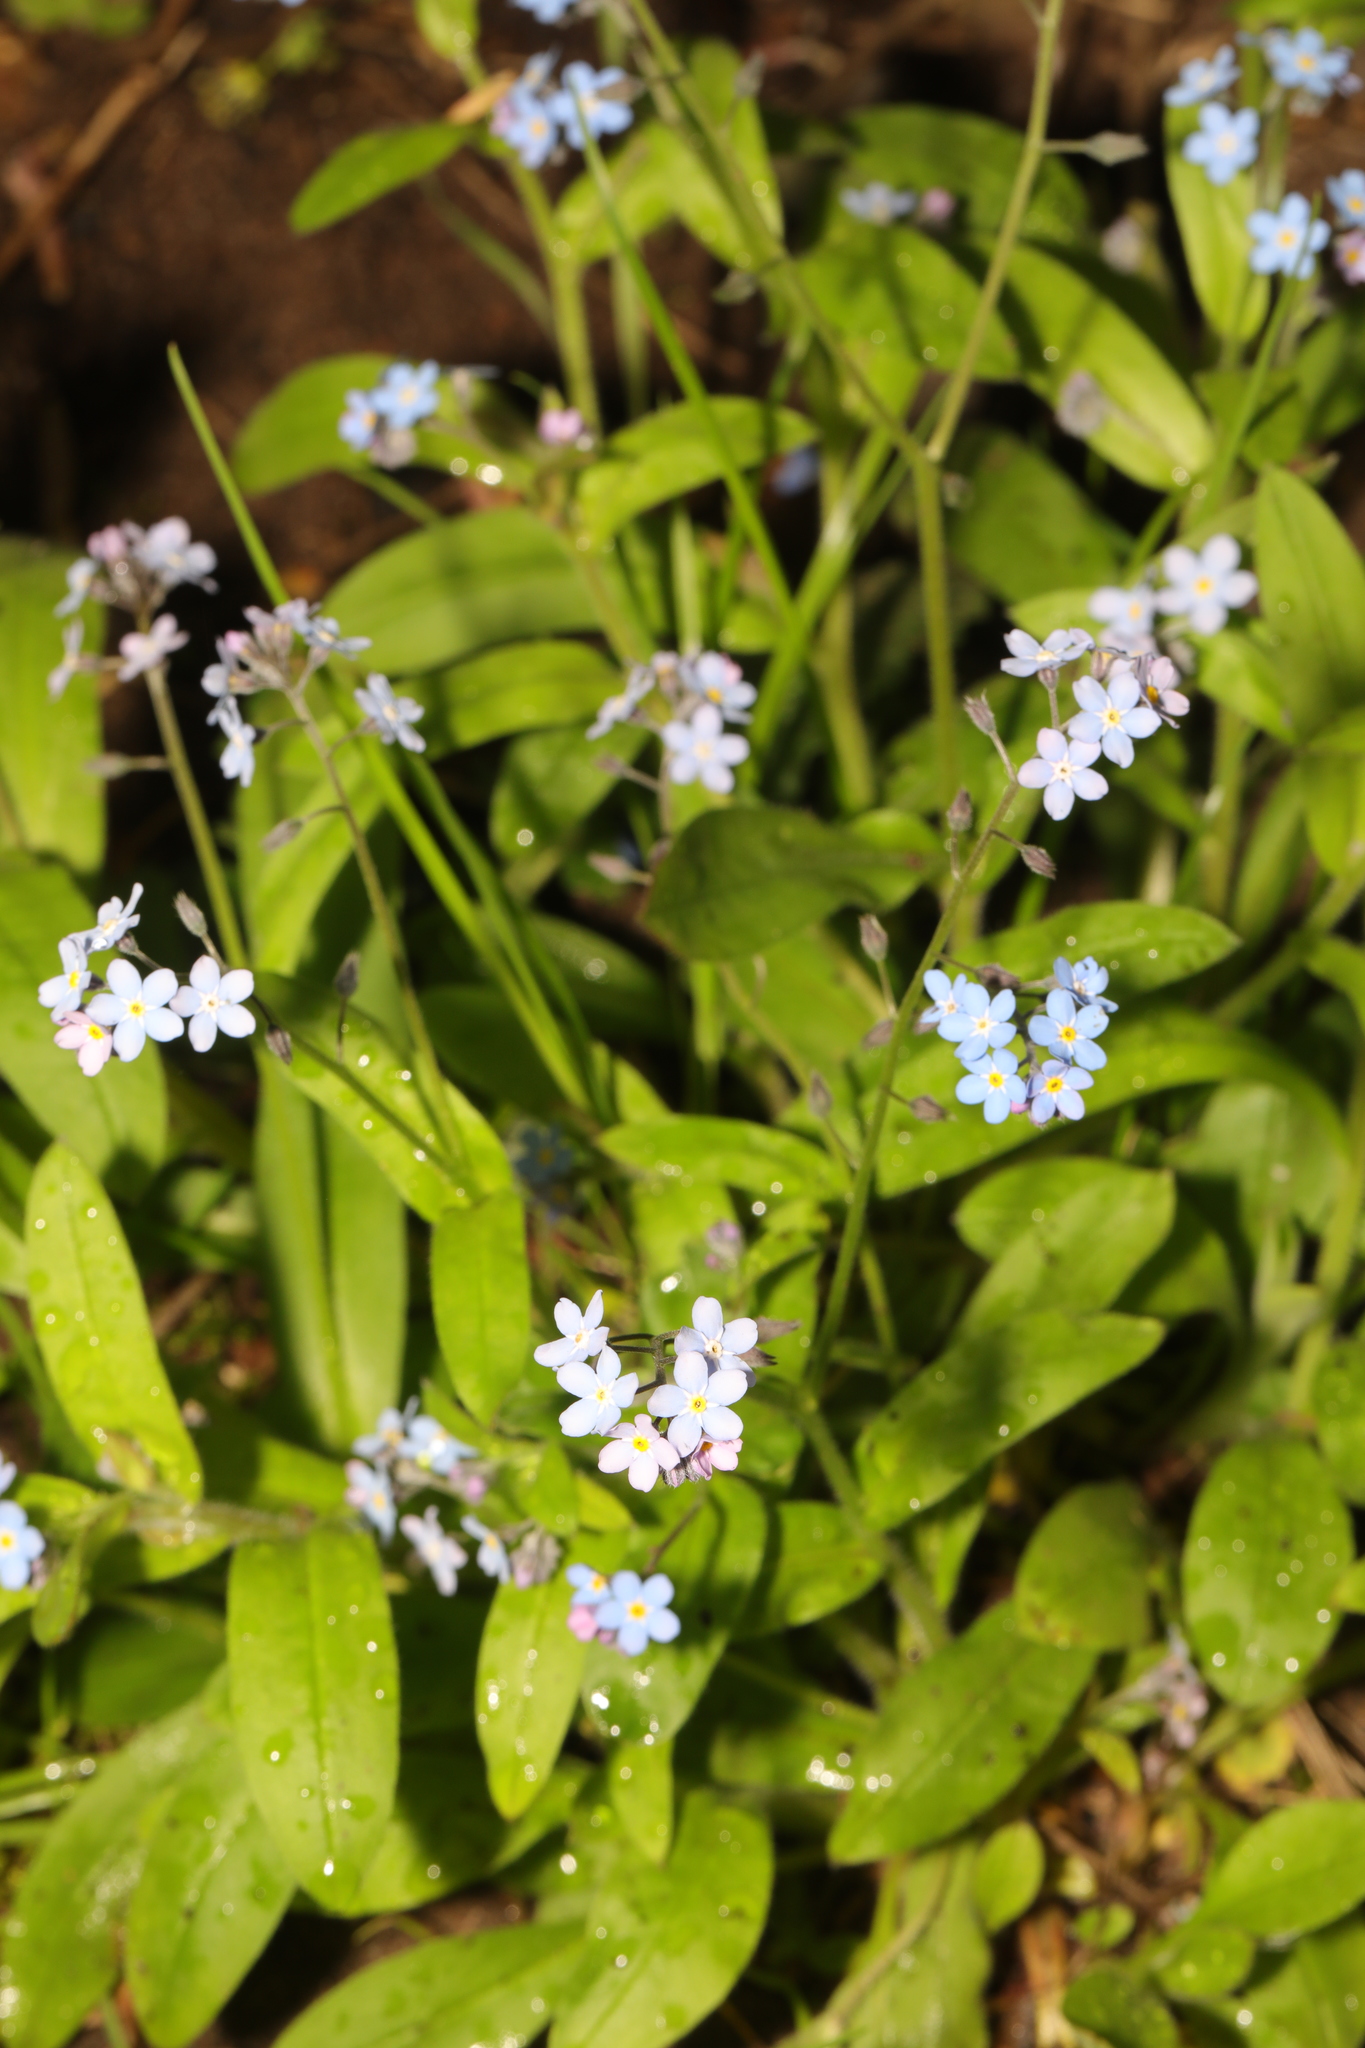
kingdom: Plantae
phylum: Tracheophyta
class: Magnoliopsida
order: Boraginales
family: Boraginaceae
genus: Myosotis
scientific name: Myosotis sylvatica
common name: Wood forget-me-not
